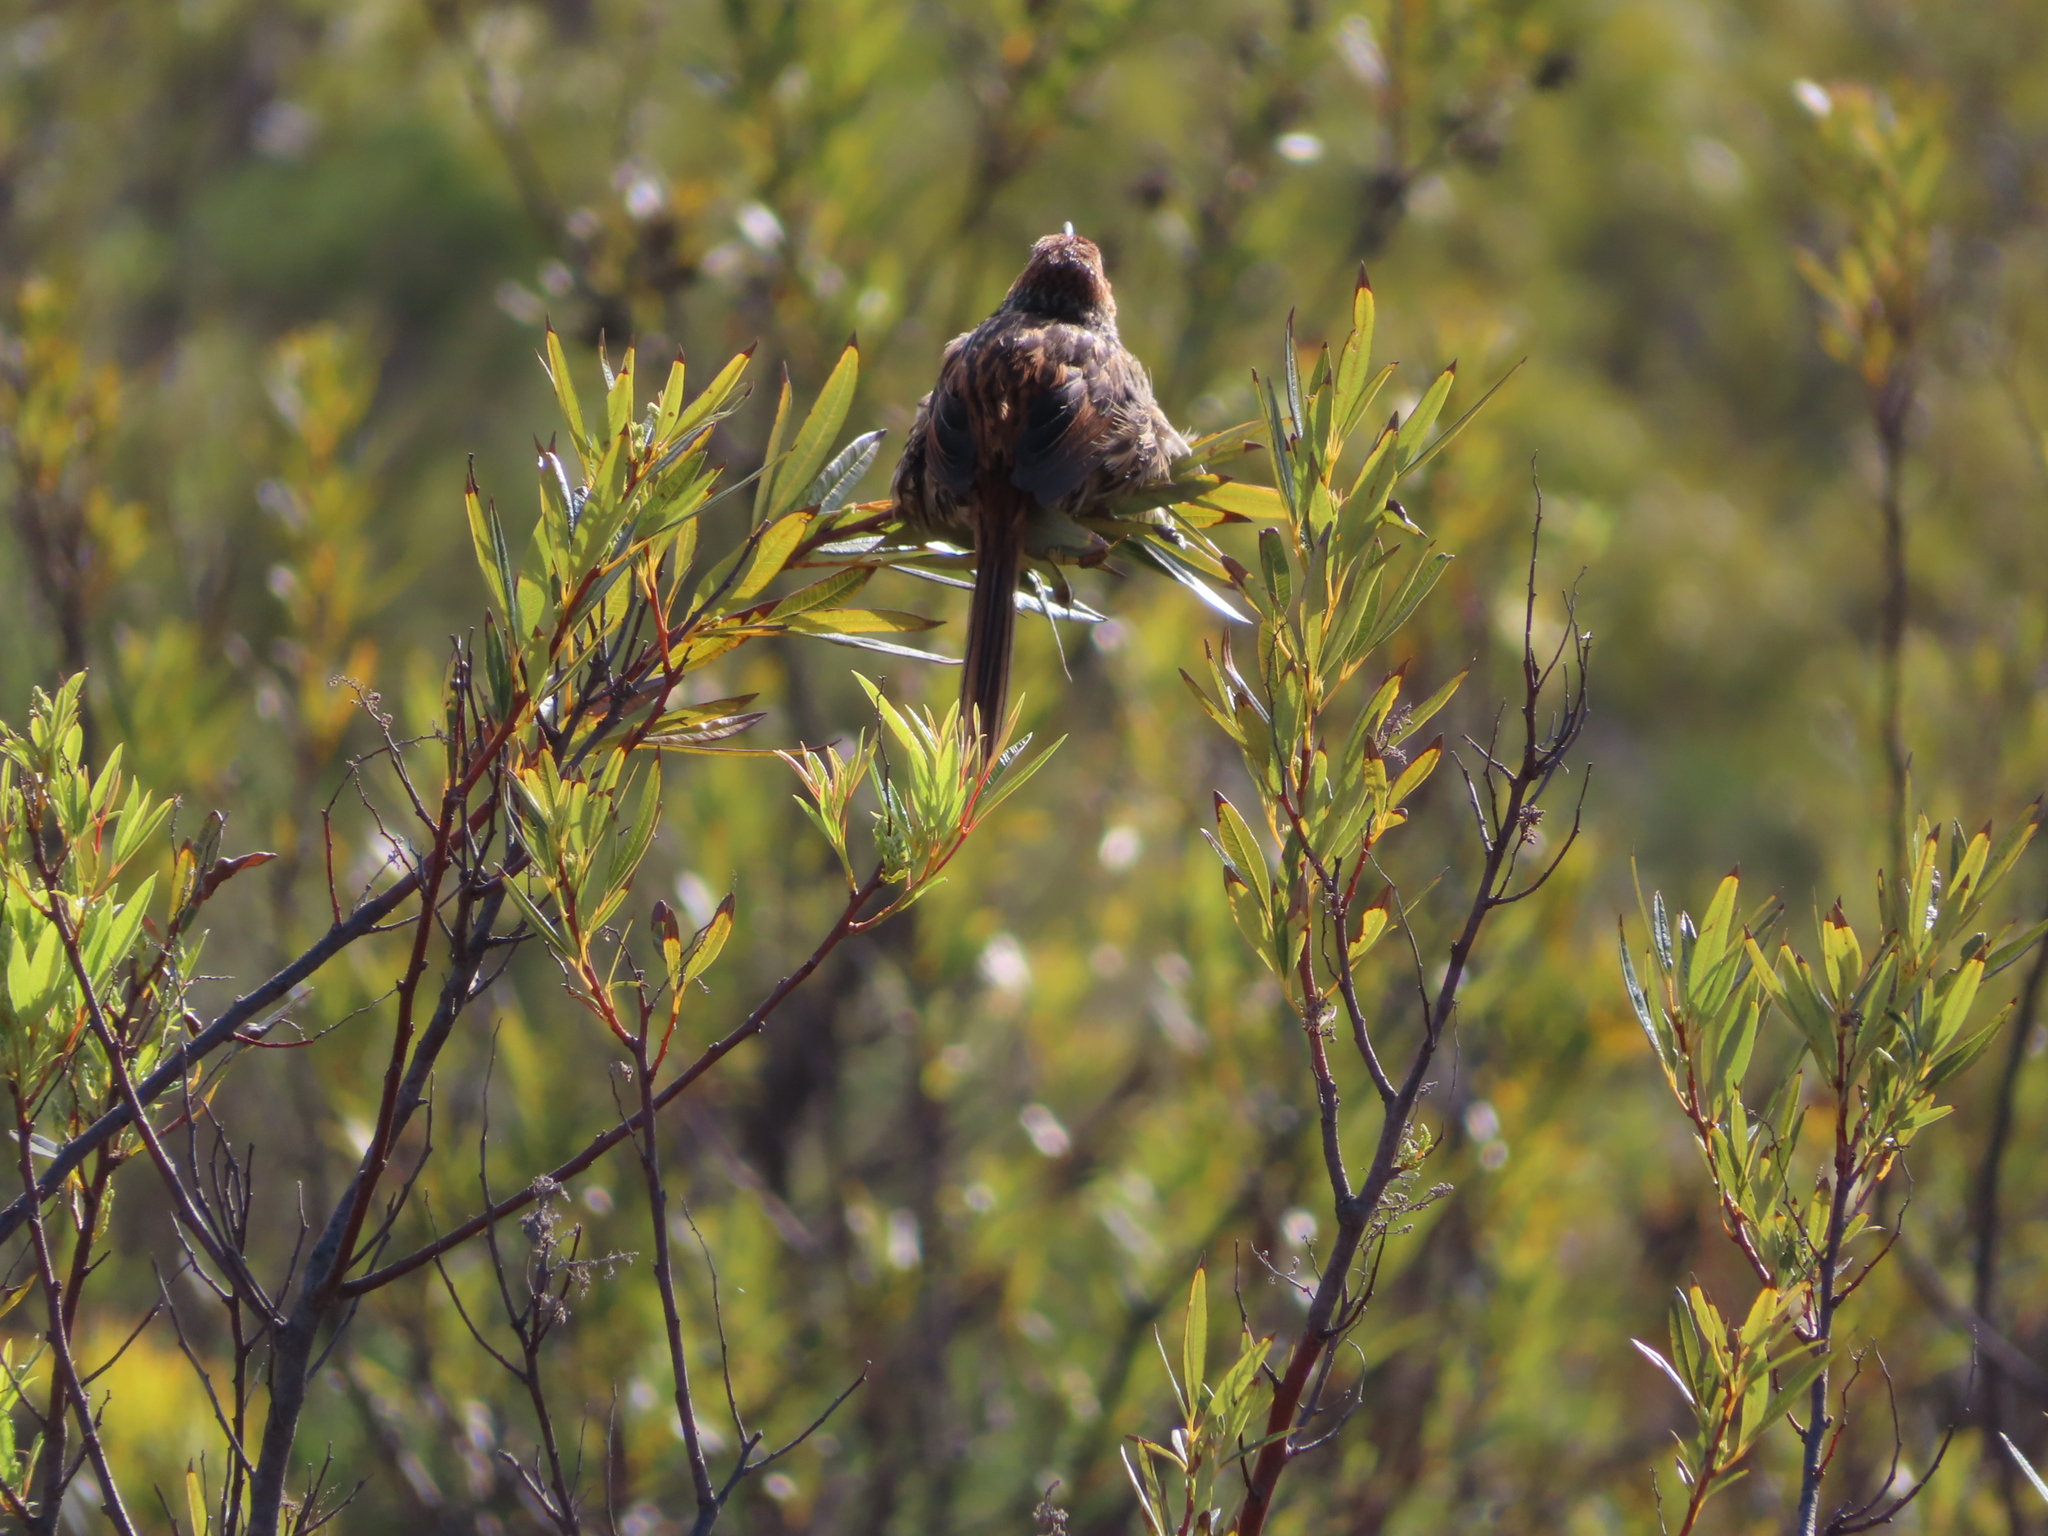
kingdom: Animalia
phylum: Chordata
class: Aves
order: Passeriformes
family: Macrosphenidae
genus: Sphenoeacus
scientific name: Sphenoeacus afer
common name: Cape grassbird
